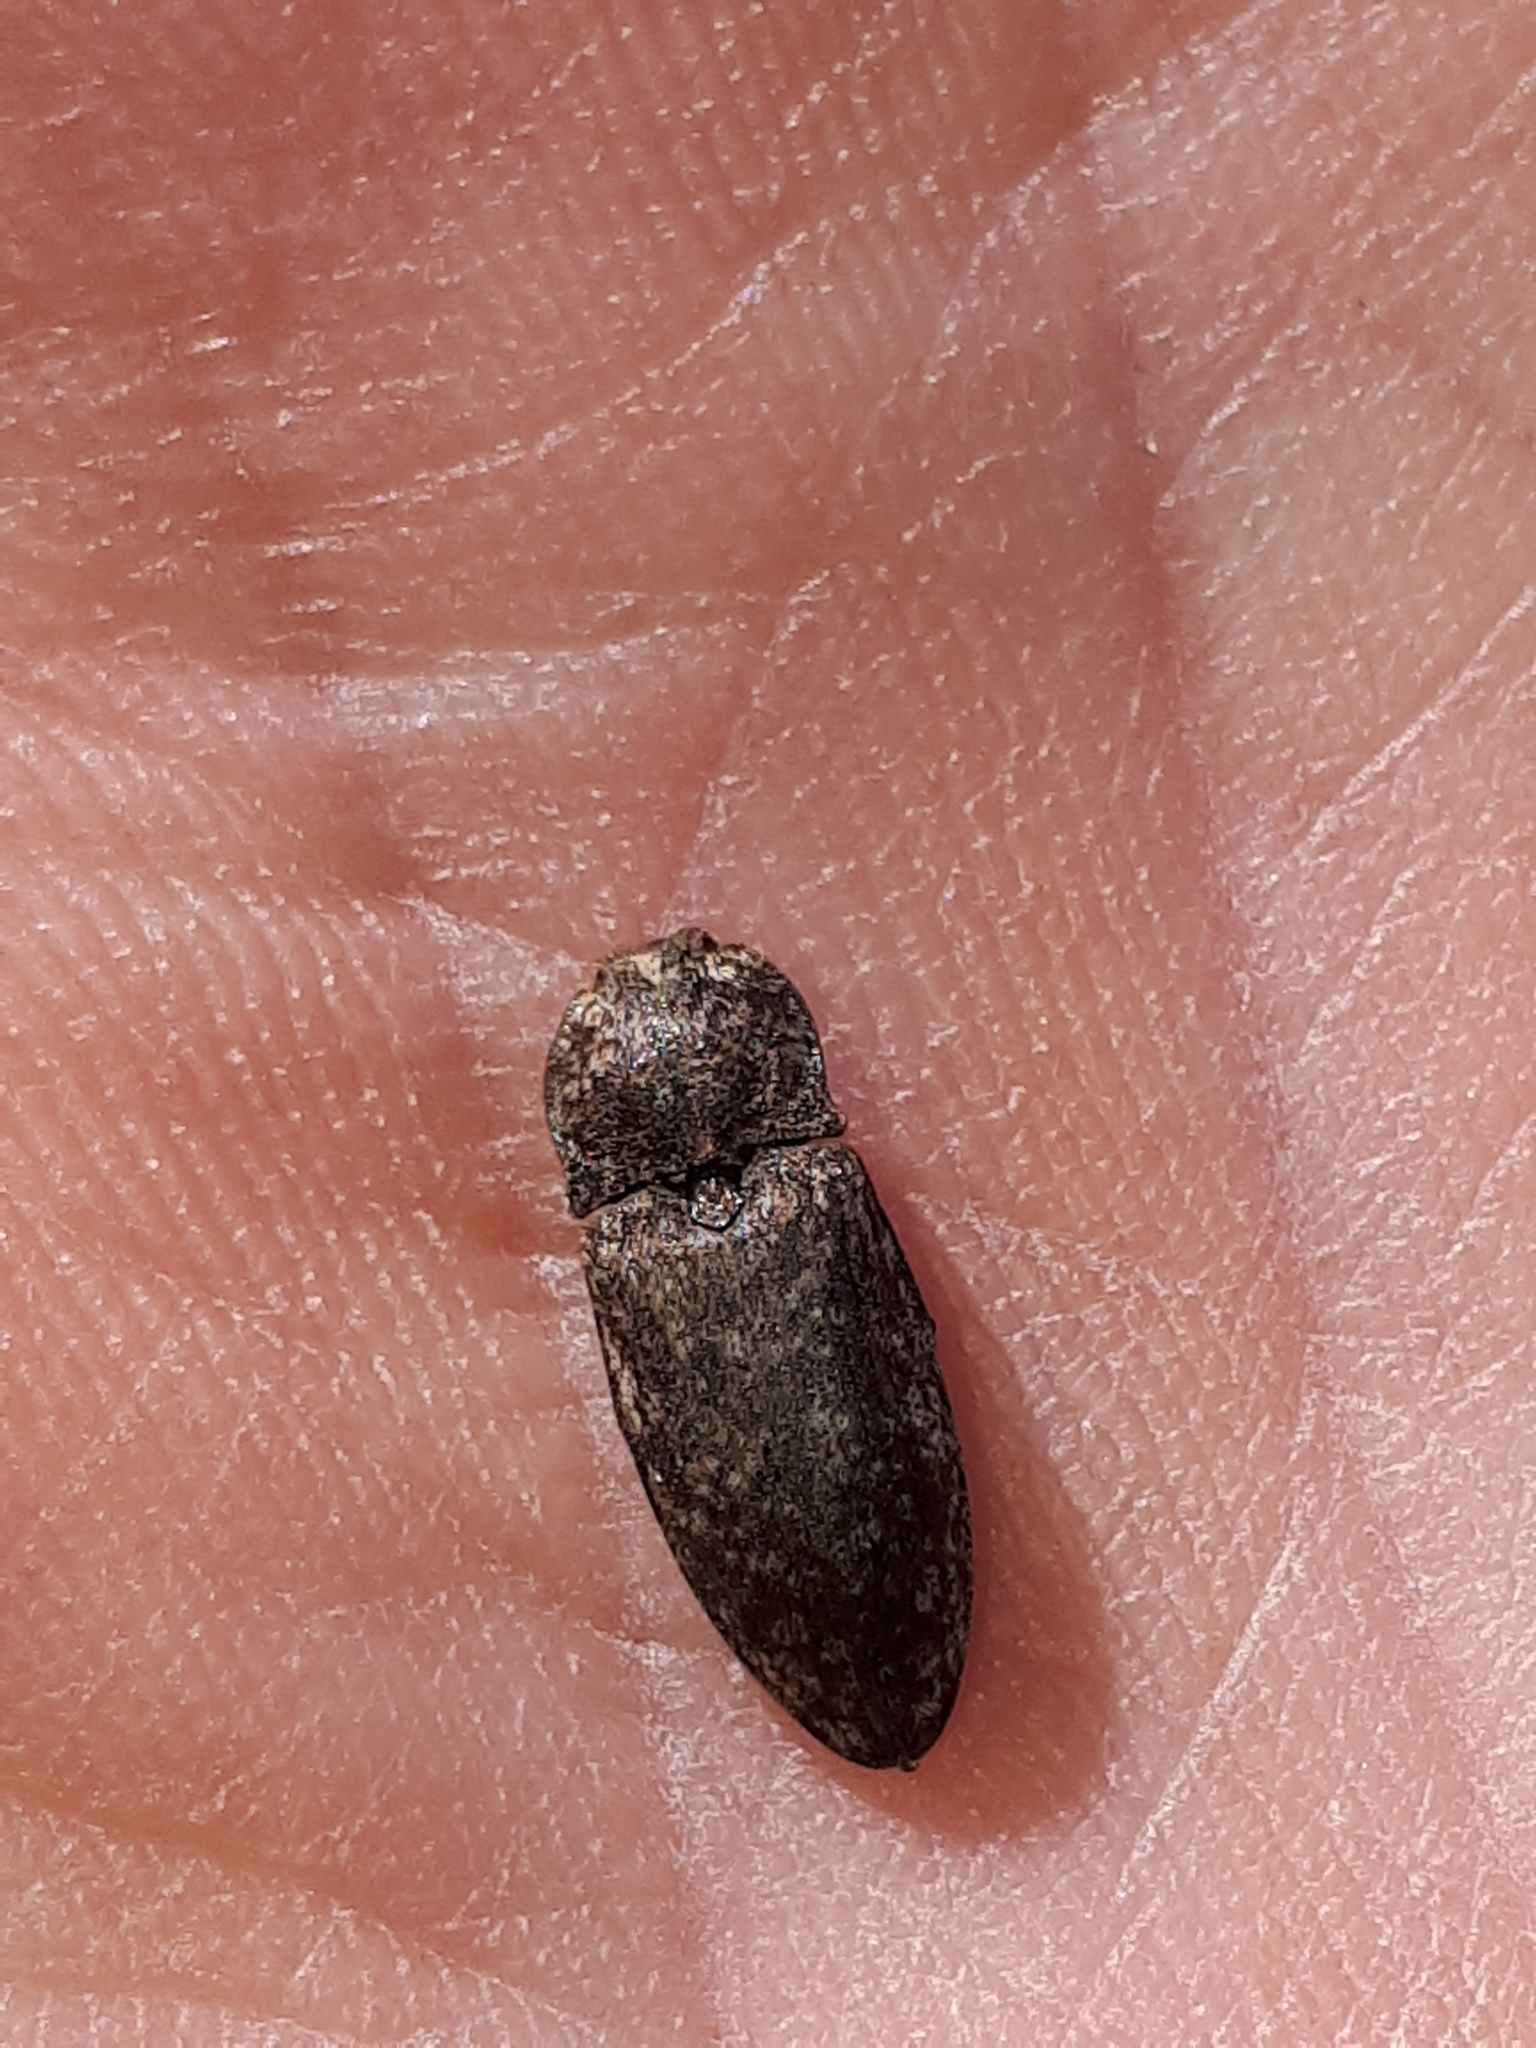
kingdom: Animalia
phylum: Arthropoda
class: Insecta
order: Coleoptera
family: Elateridae
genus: Agrypnus
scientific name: Agrypnus murinus
